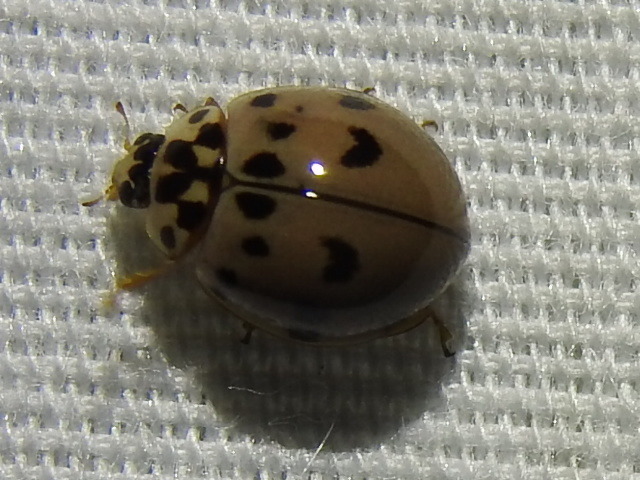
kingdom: Animalia
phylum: Arthropoda
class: Insecta
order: Coleoptera
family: Coccinellidae
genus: Olla
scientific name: Olla v-nigrum
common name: Ashy gray lady beetle
